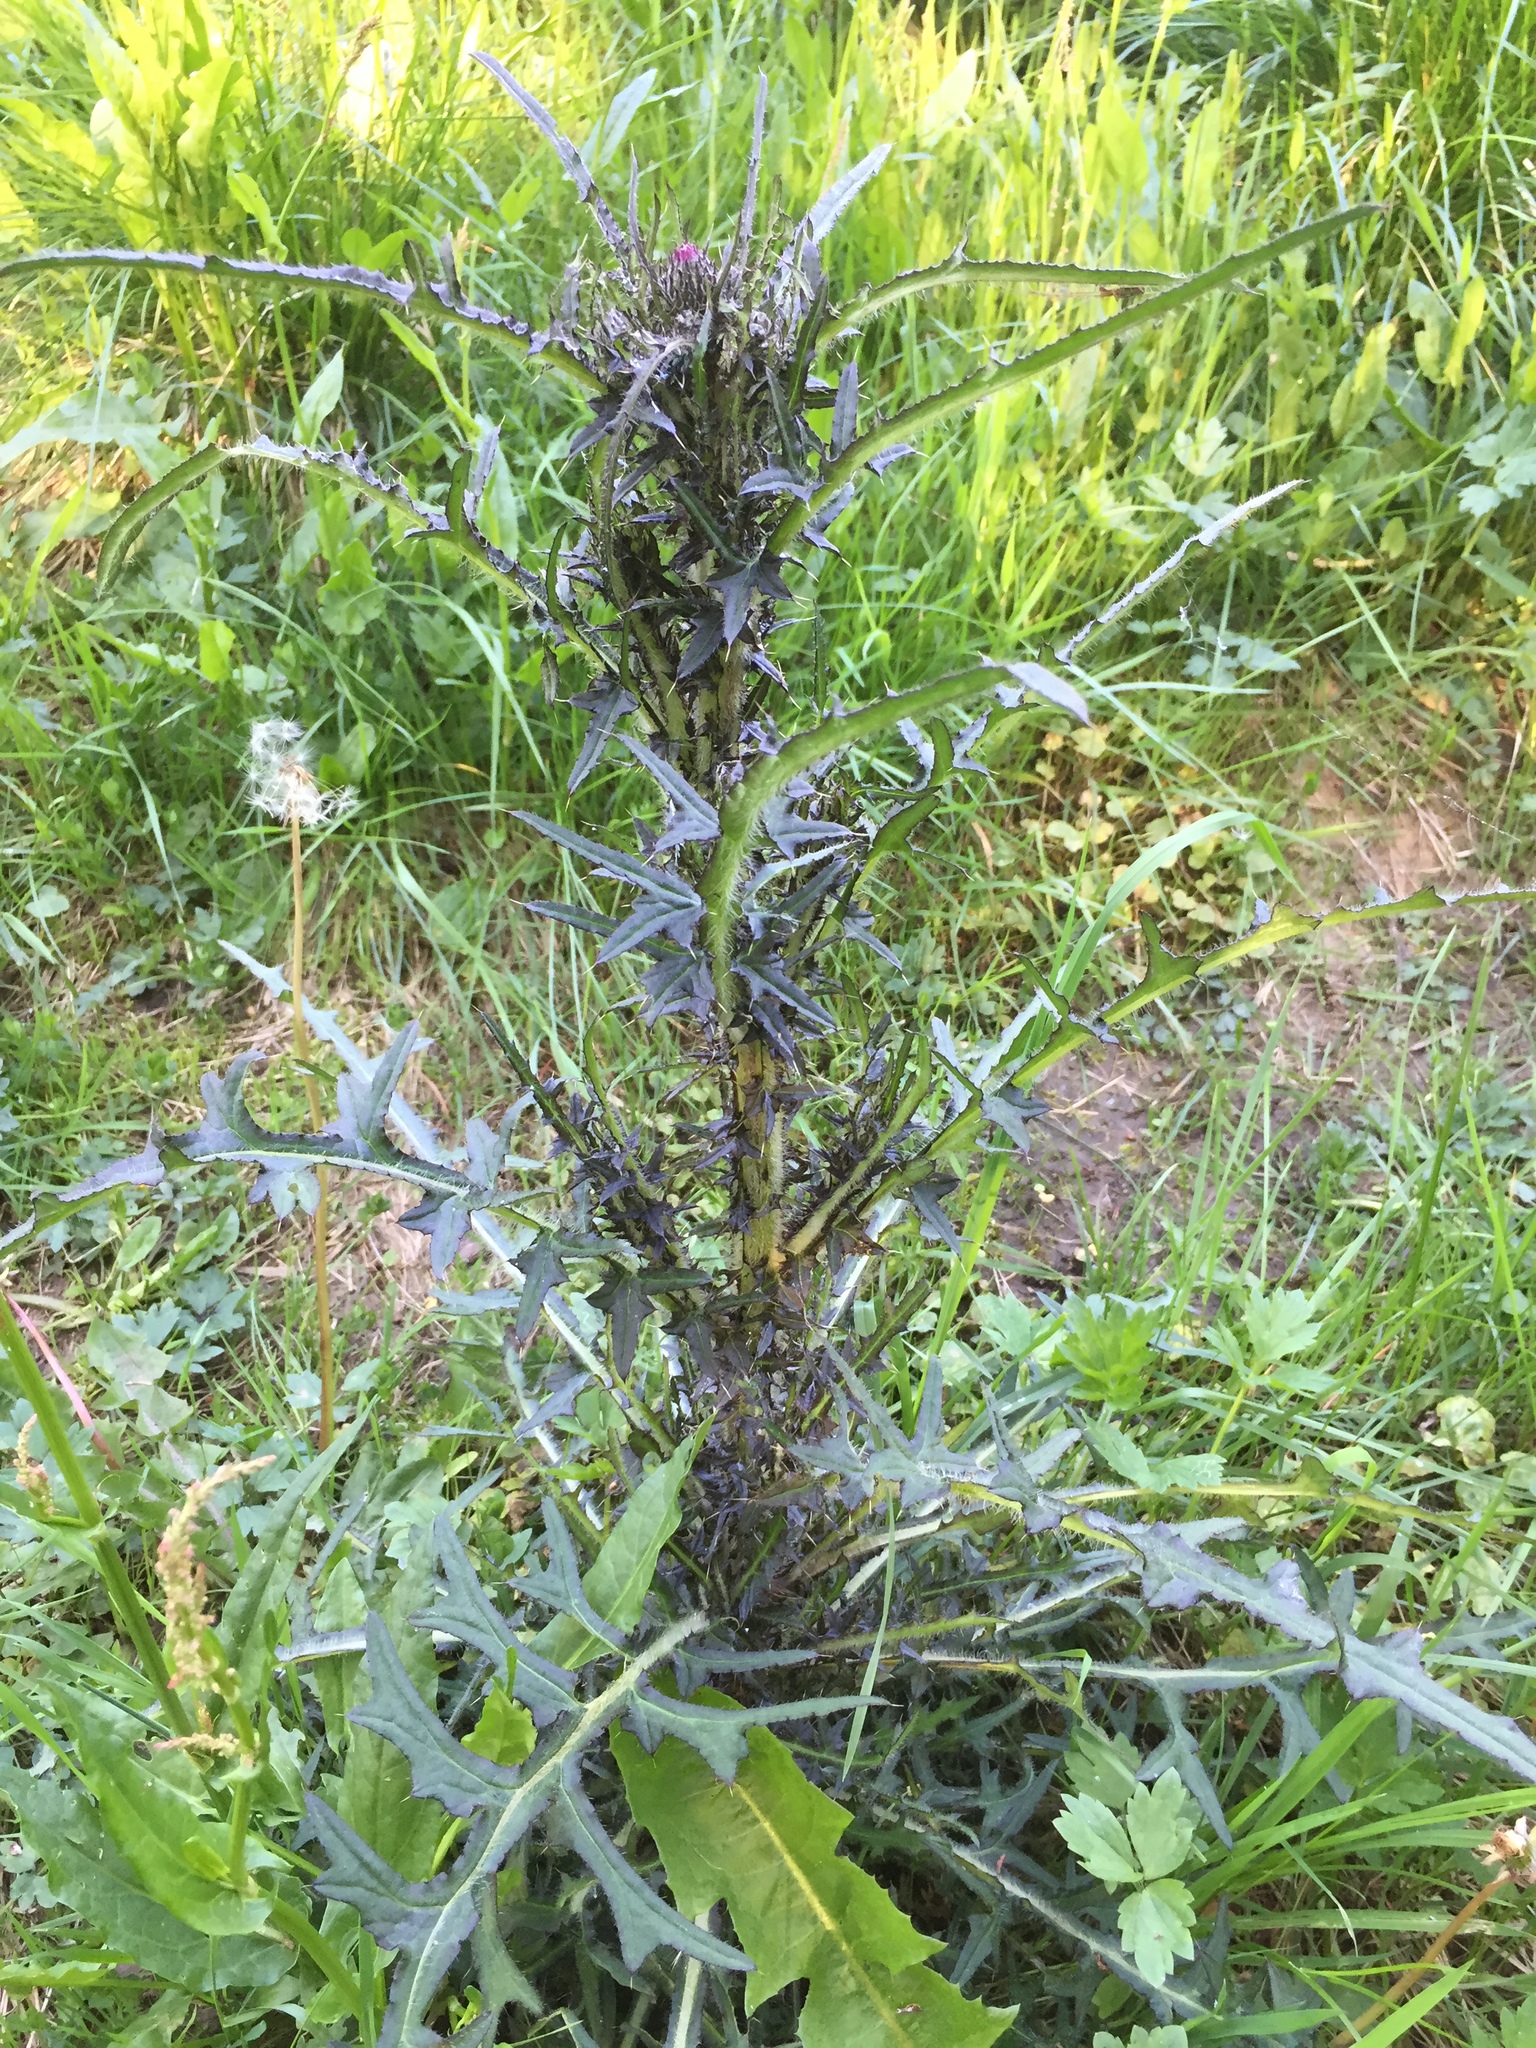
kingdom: Plantae
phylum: Tracheophyta
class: Magnoliopsida
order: Asterales
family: Asteraceae
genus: Cirsium
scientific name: Cirsium palustre
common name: Marsh thistle
